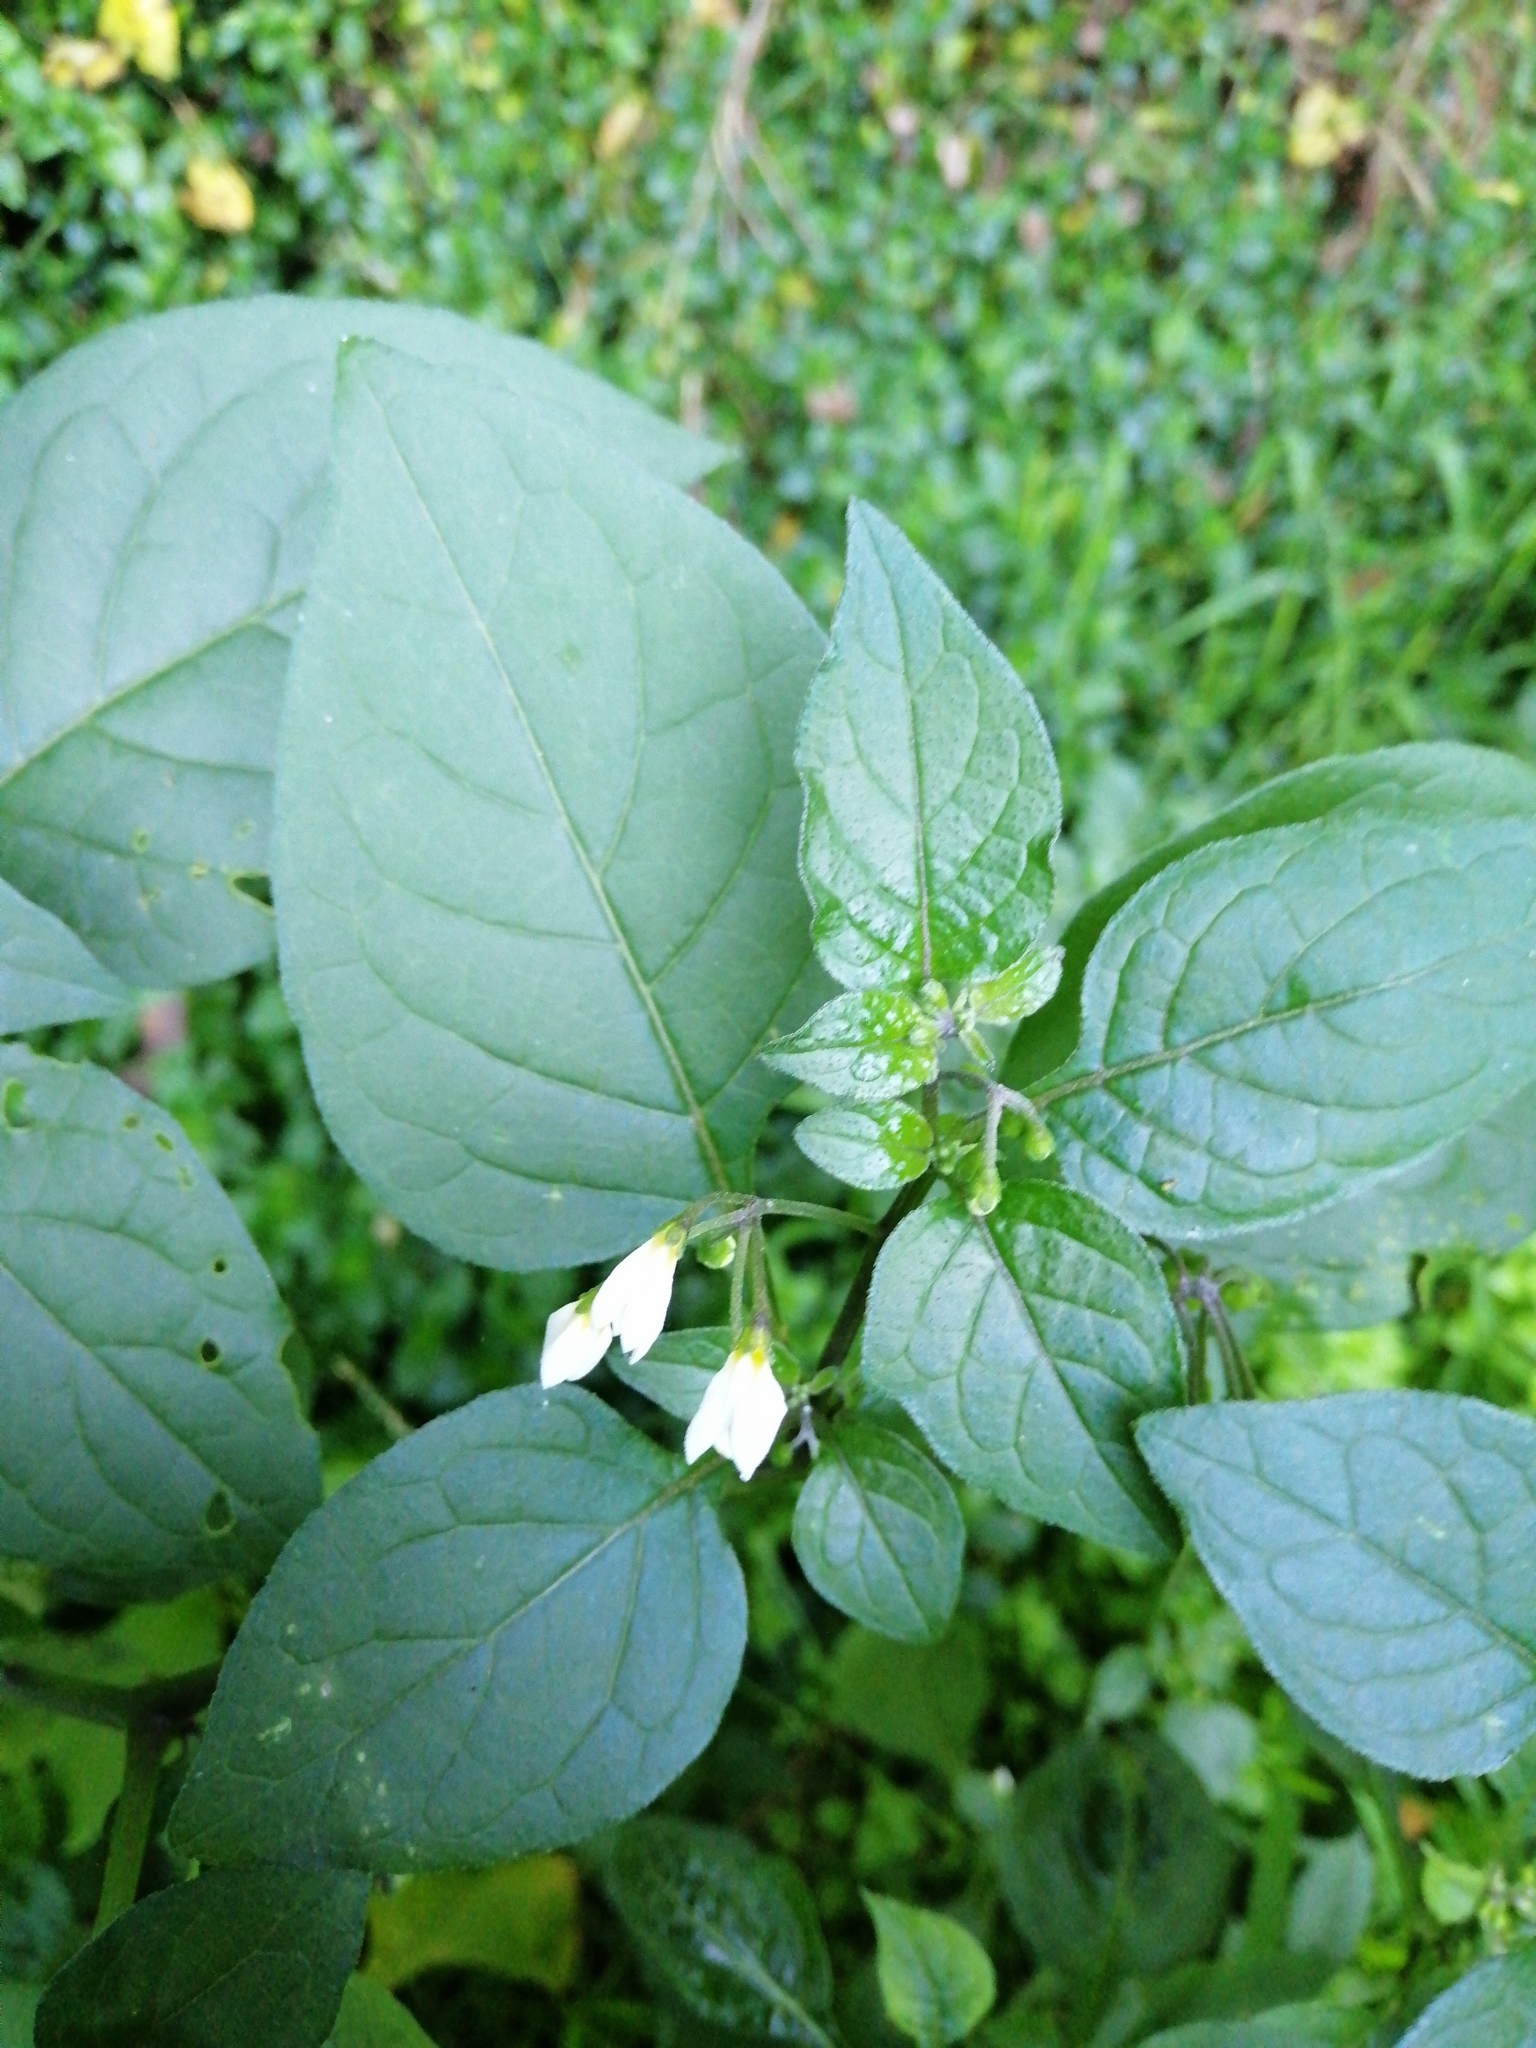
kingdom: Plantae
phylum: Tracheophyta
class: Magnoliopsida
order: Solanales
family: Solanaceae
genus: Solanum
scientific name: Solanum nigrum
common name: Black nightshade
